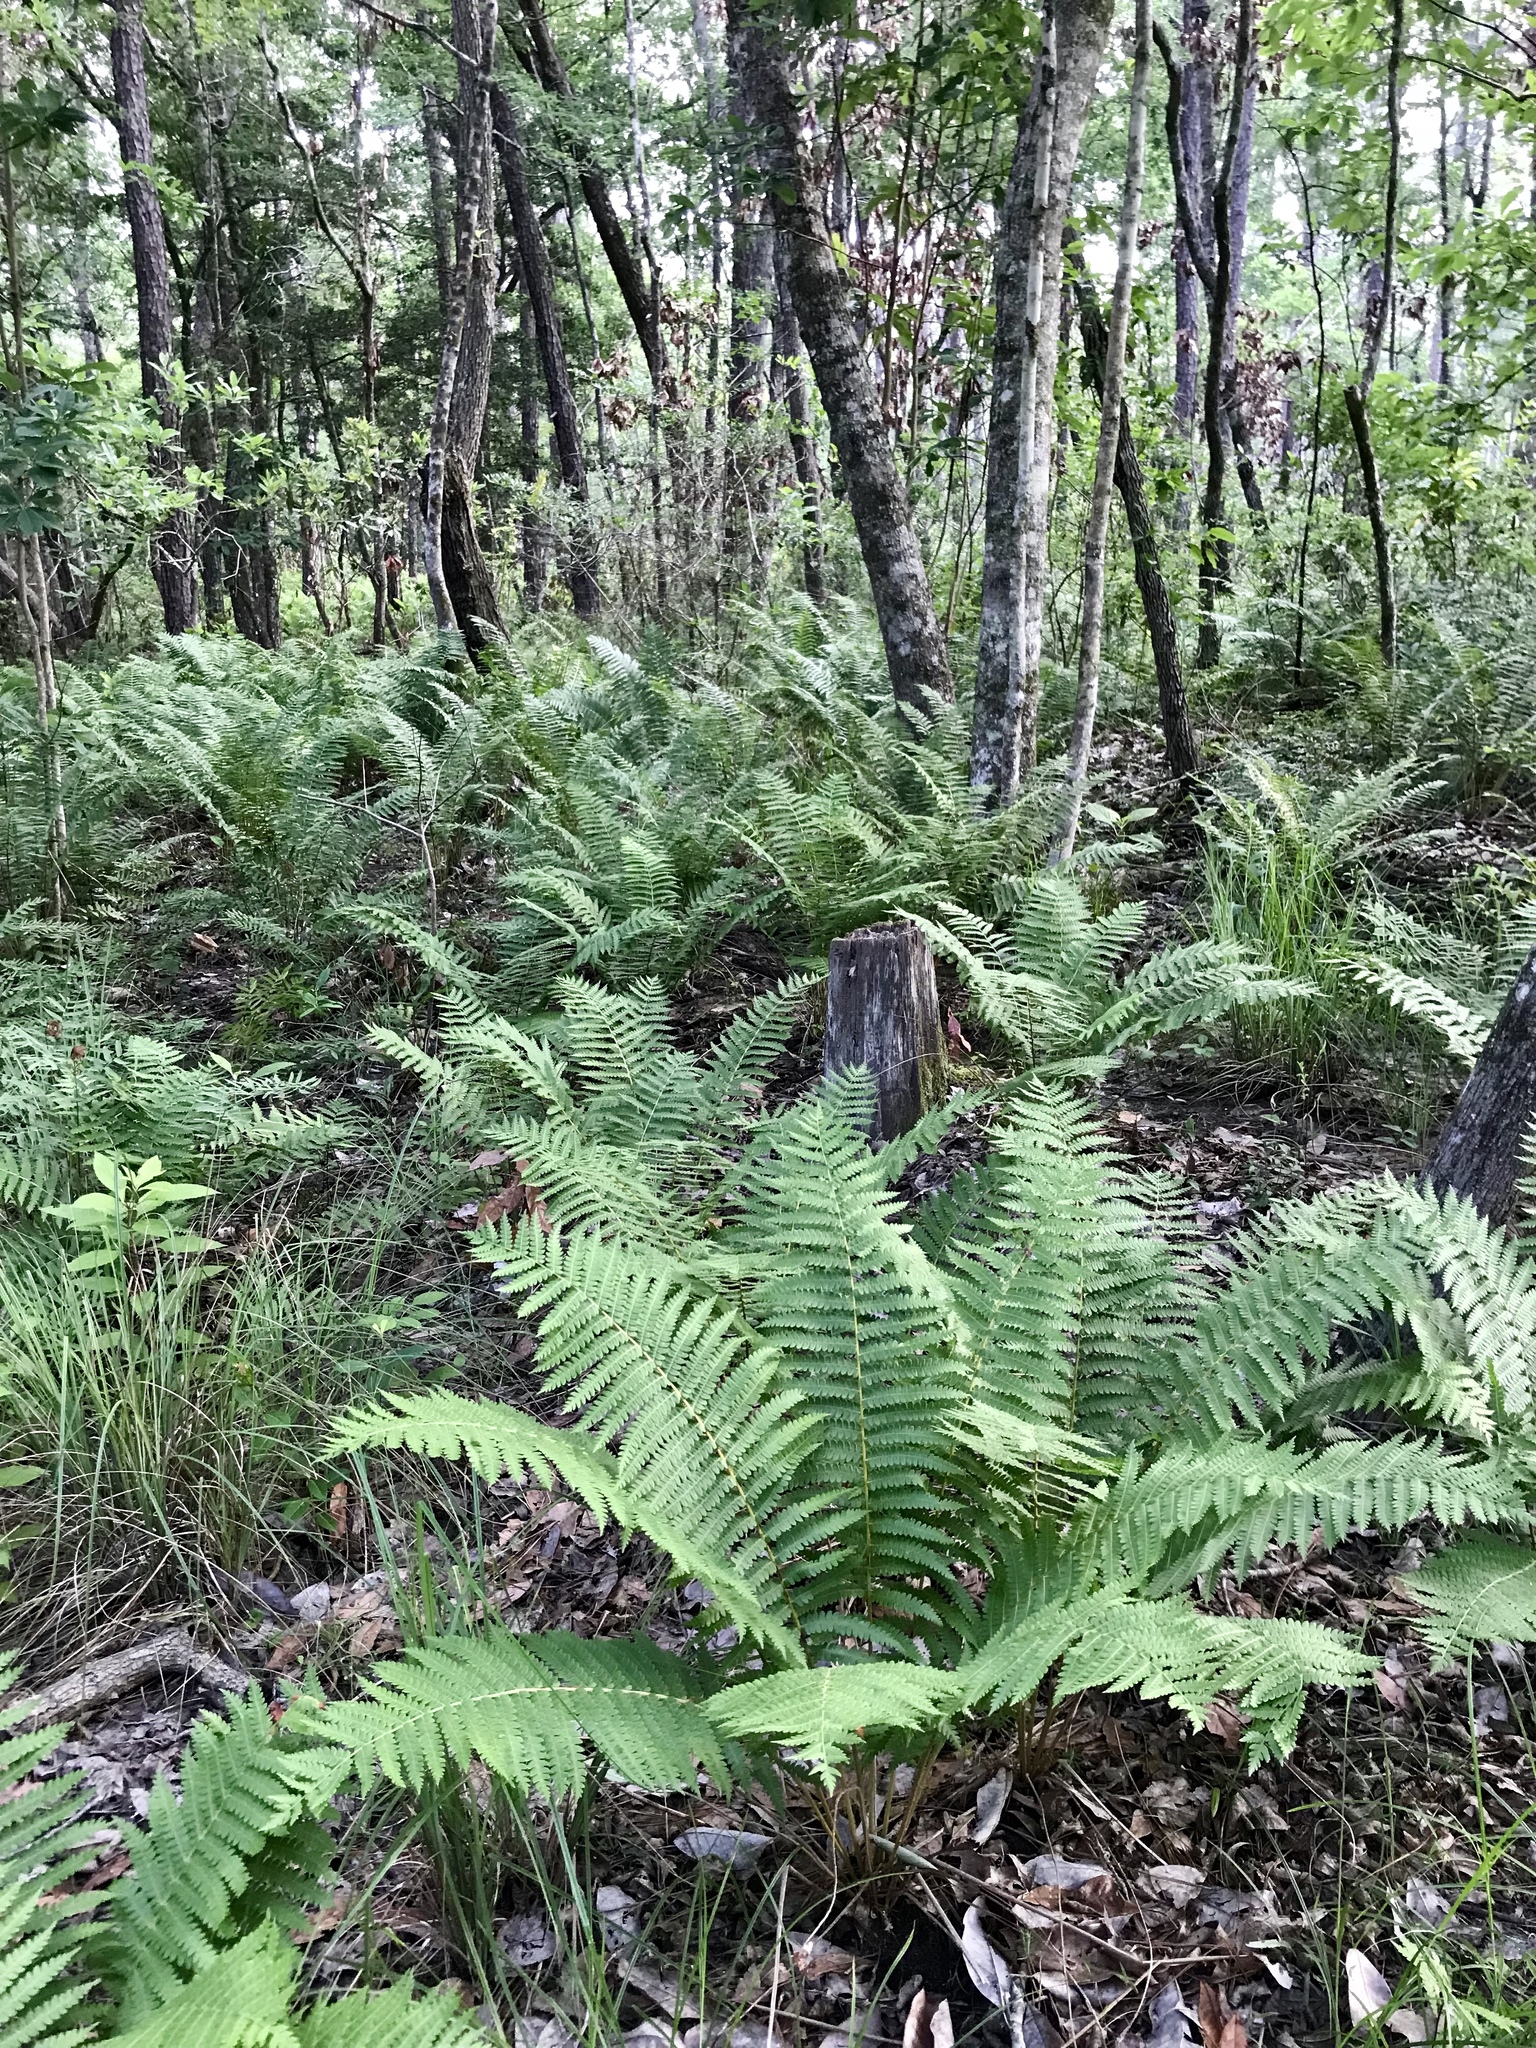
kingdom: Plantae
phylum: Tracheophyta
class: Polypodiopsida
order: Osmundales
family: Osmundaceae
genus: Osmundastrum
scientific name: Osmundastrum cinnamomeum
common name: Cinnamon fern
